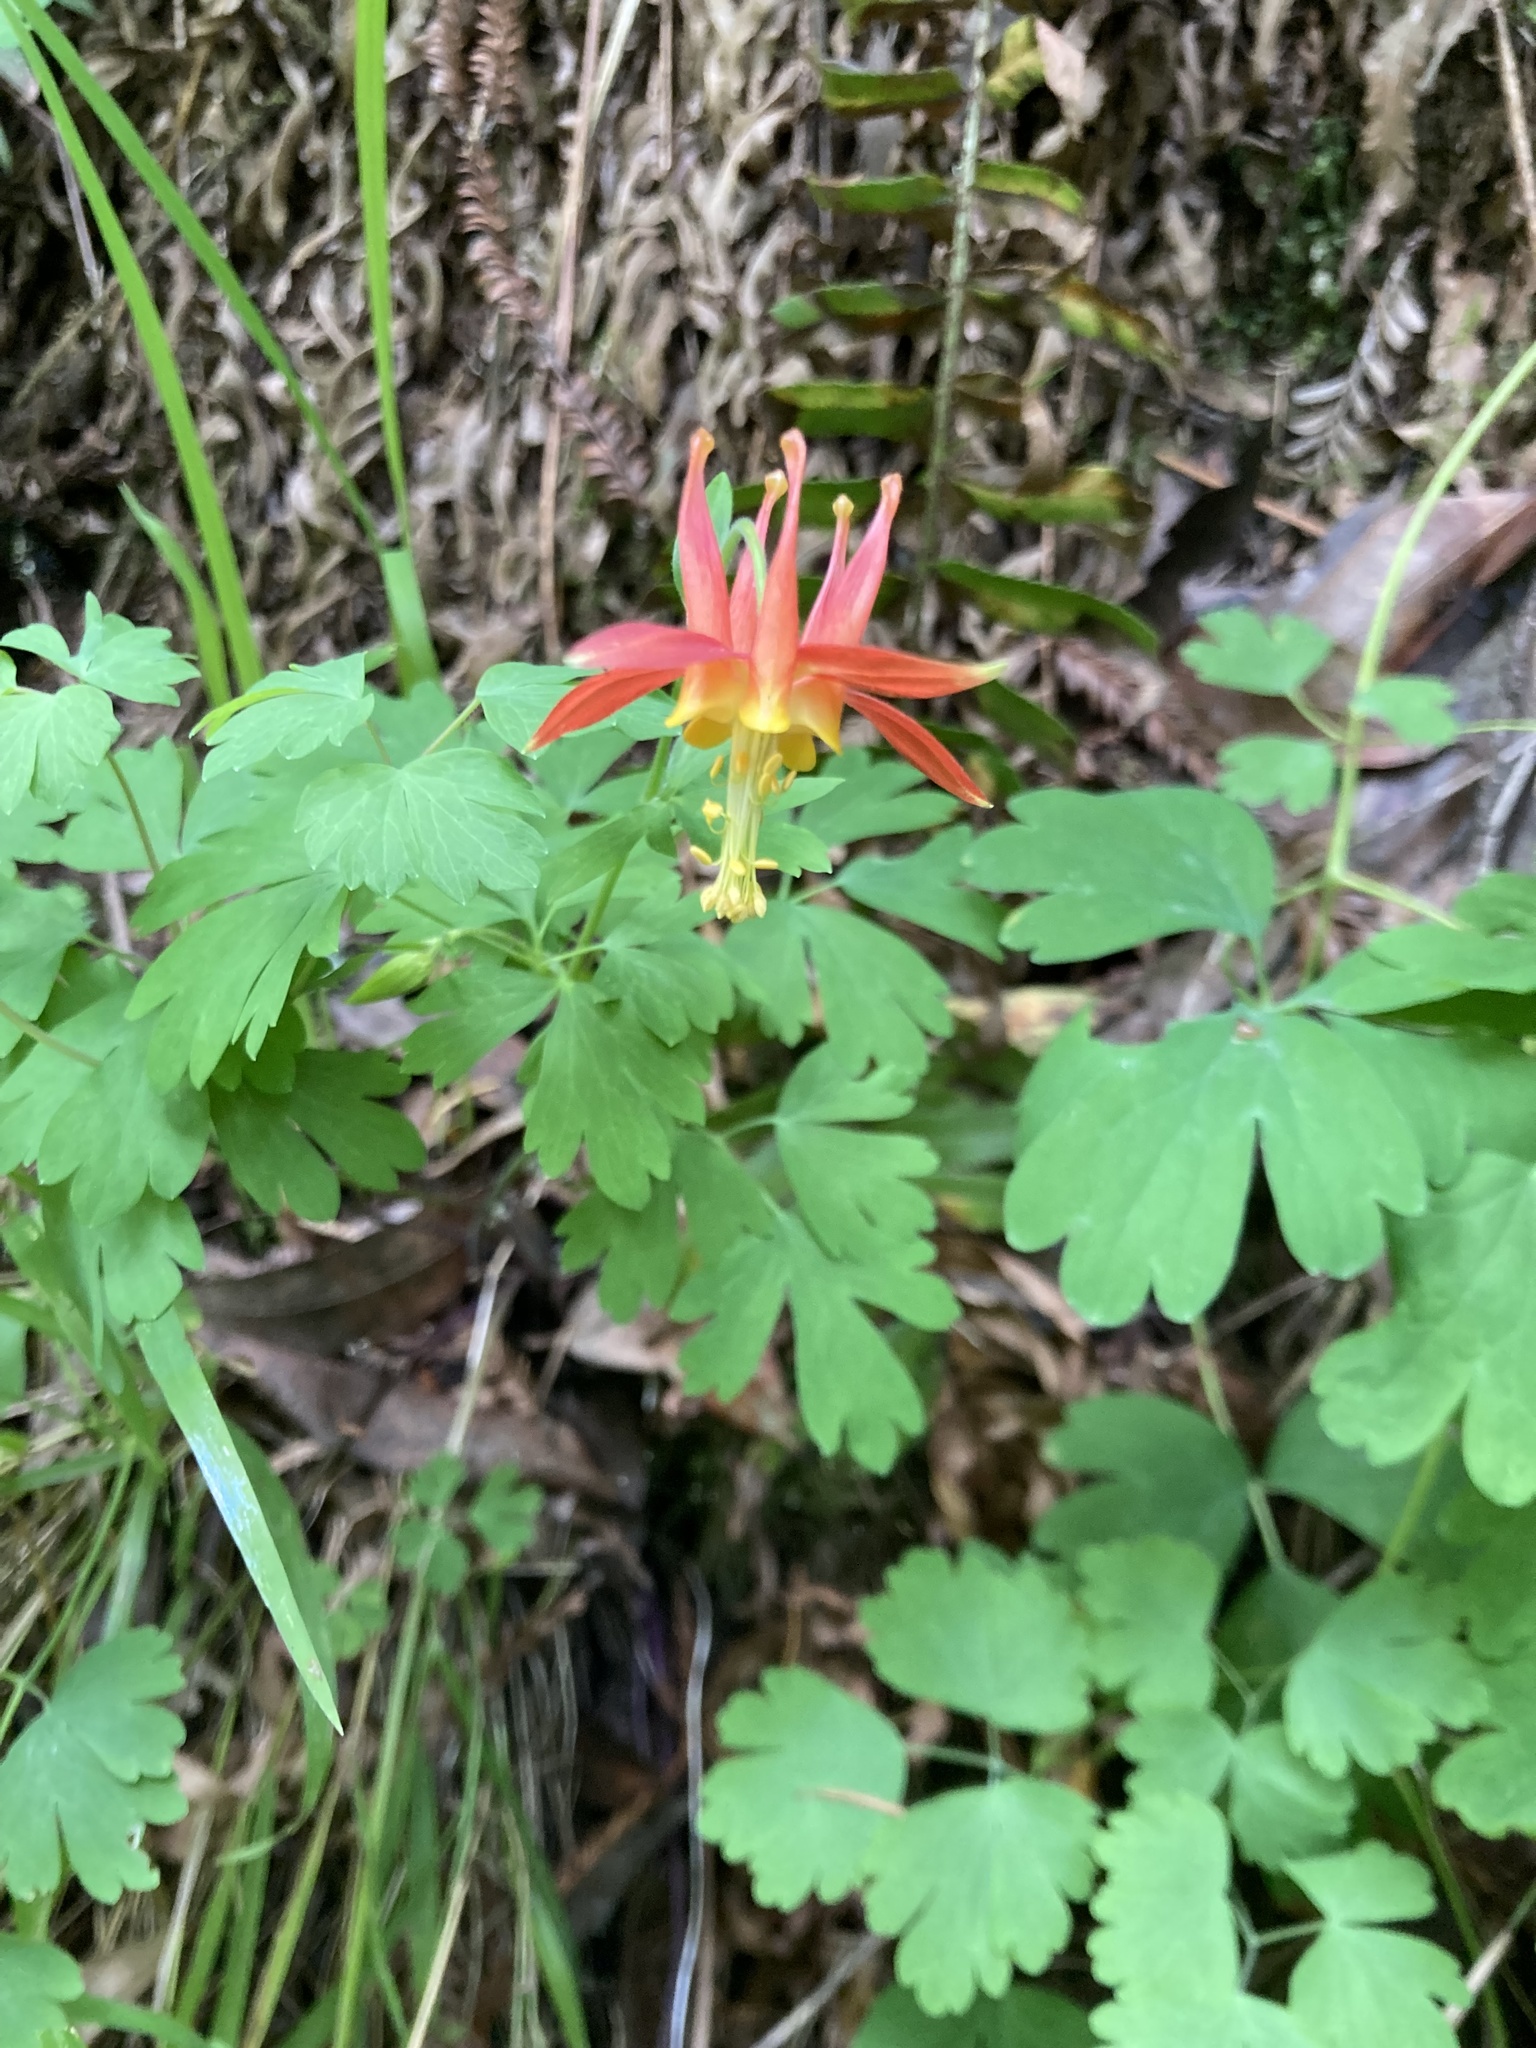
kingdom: Plantae
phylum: Tracheophyta
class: Magnoliopsida
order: Ranunculales
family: Ranunculaceae
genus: Aquilegia
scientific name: Aquilegia formosa
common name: Sitka columbine
